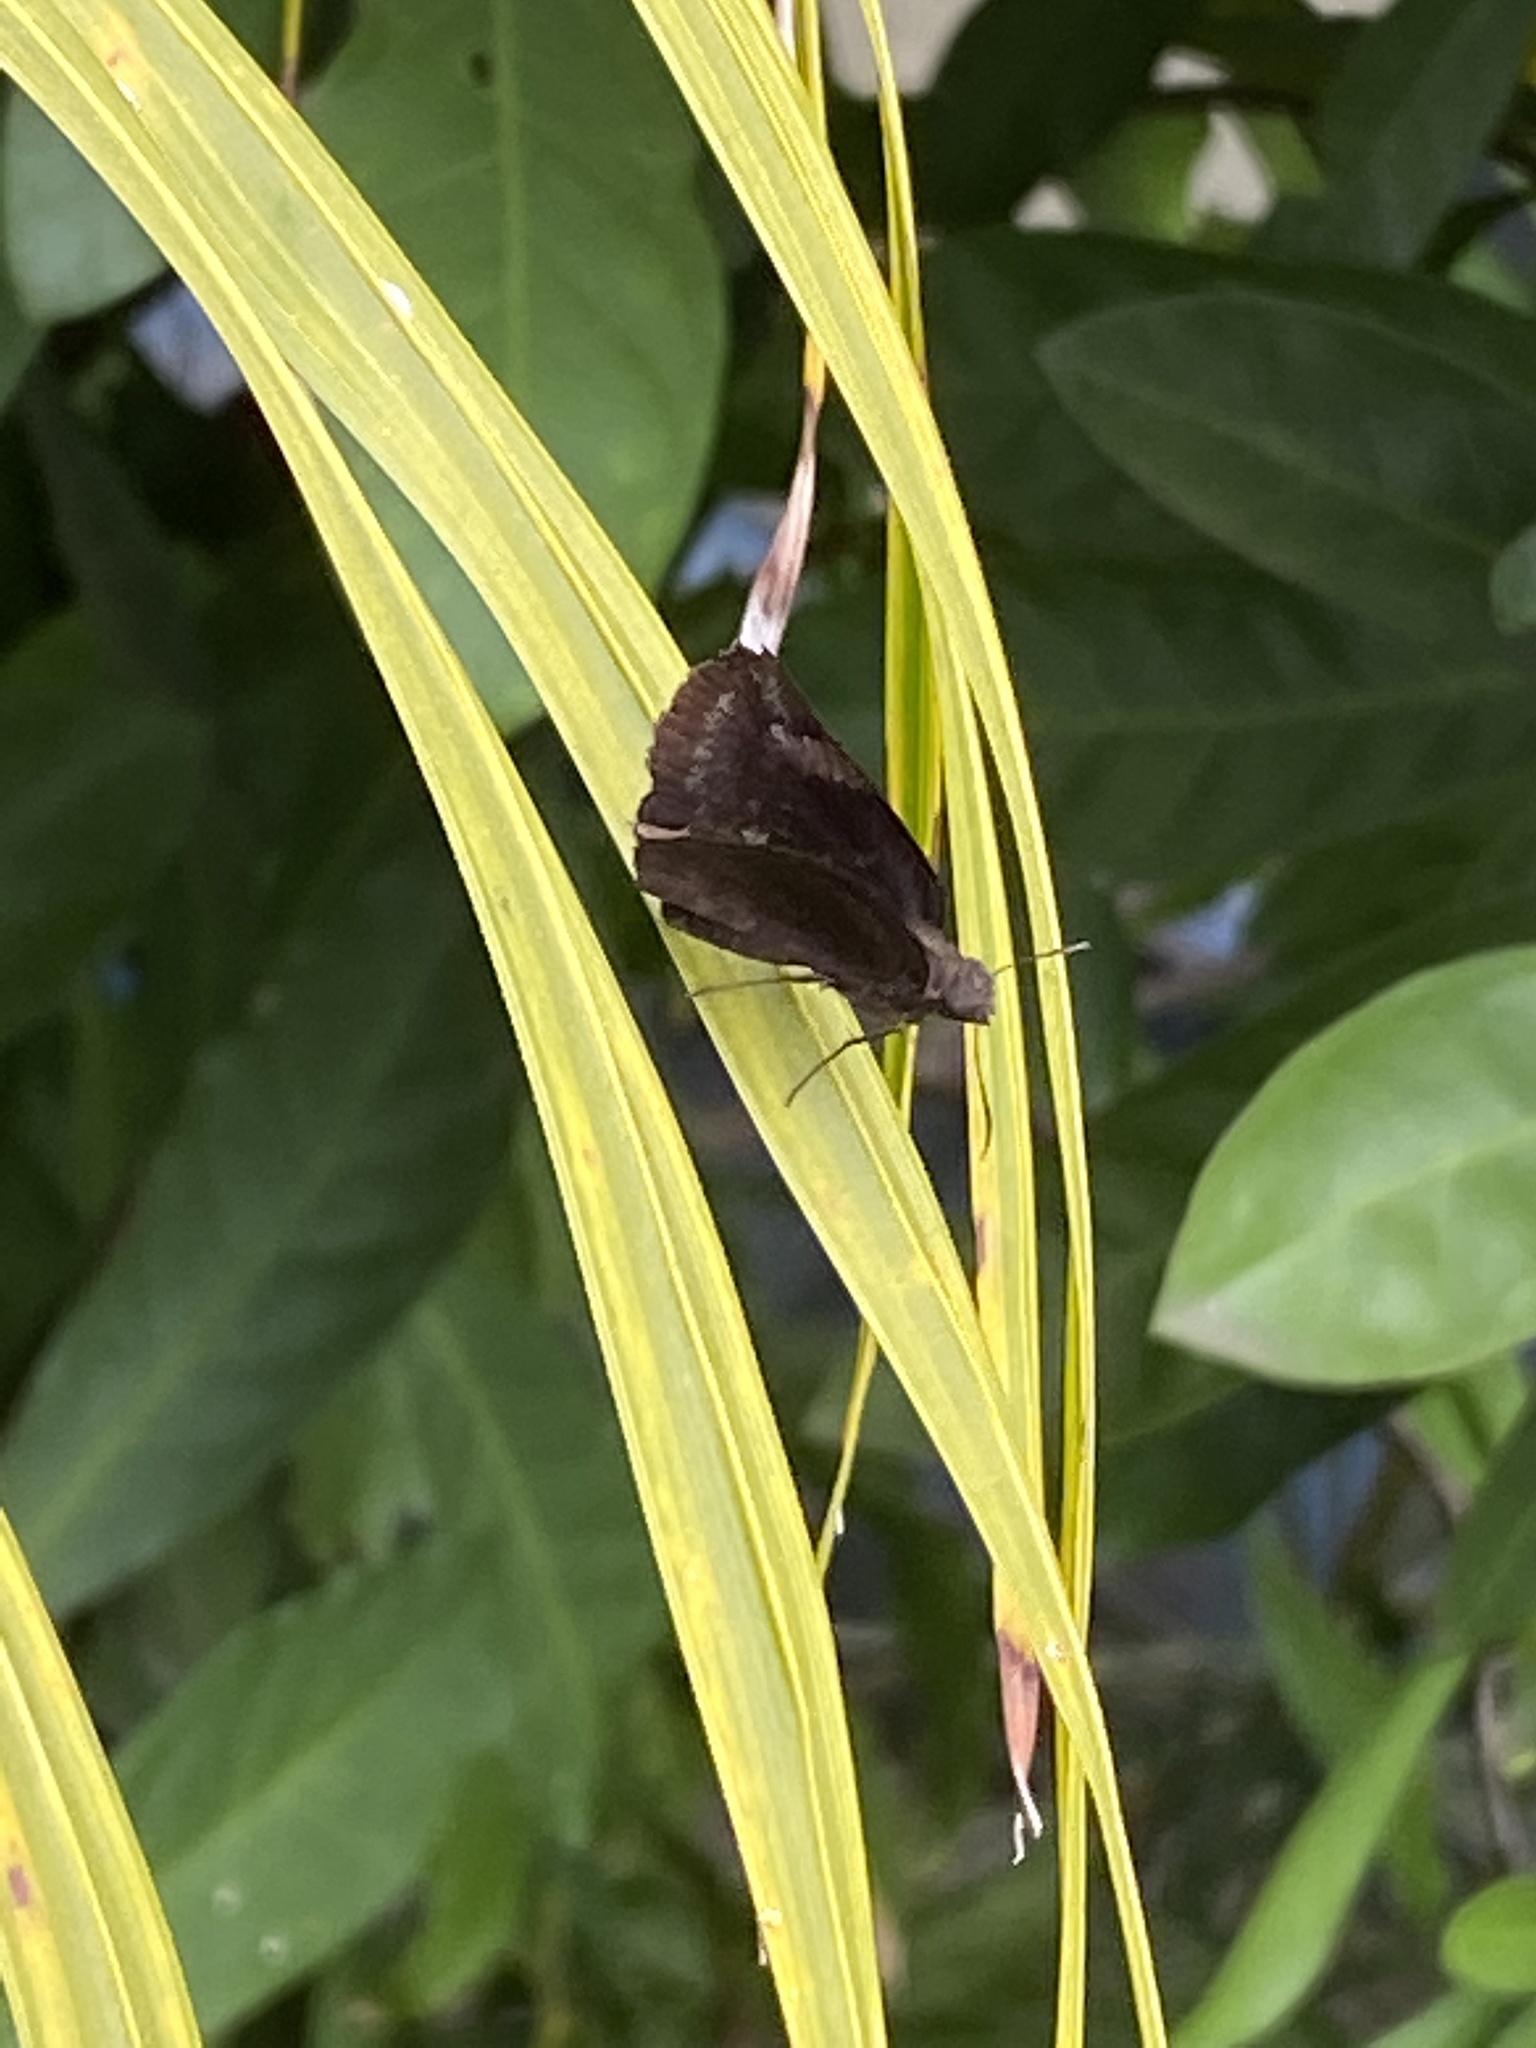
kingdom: Animalia
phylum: Arthropoda
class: Insecta
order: Lepidoptera
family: Hesperiidae
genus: Achlyodes
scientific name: Achlyodes thraso
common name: Sickle-winged skipper
